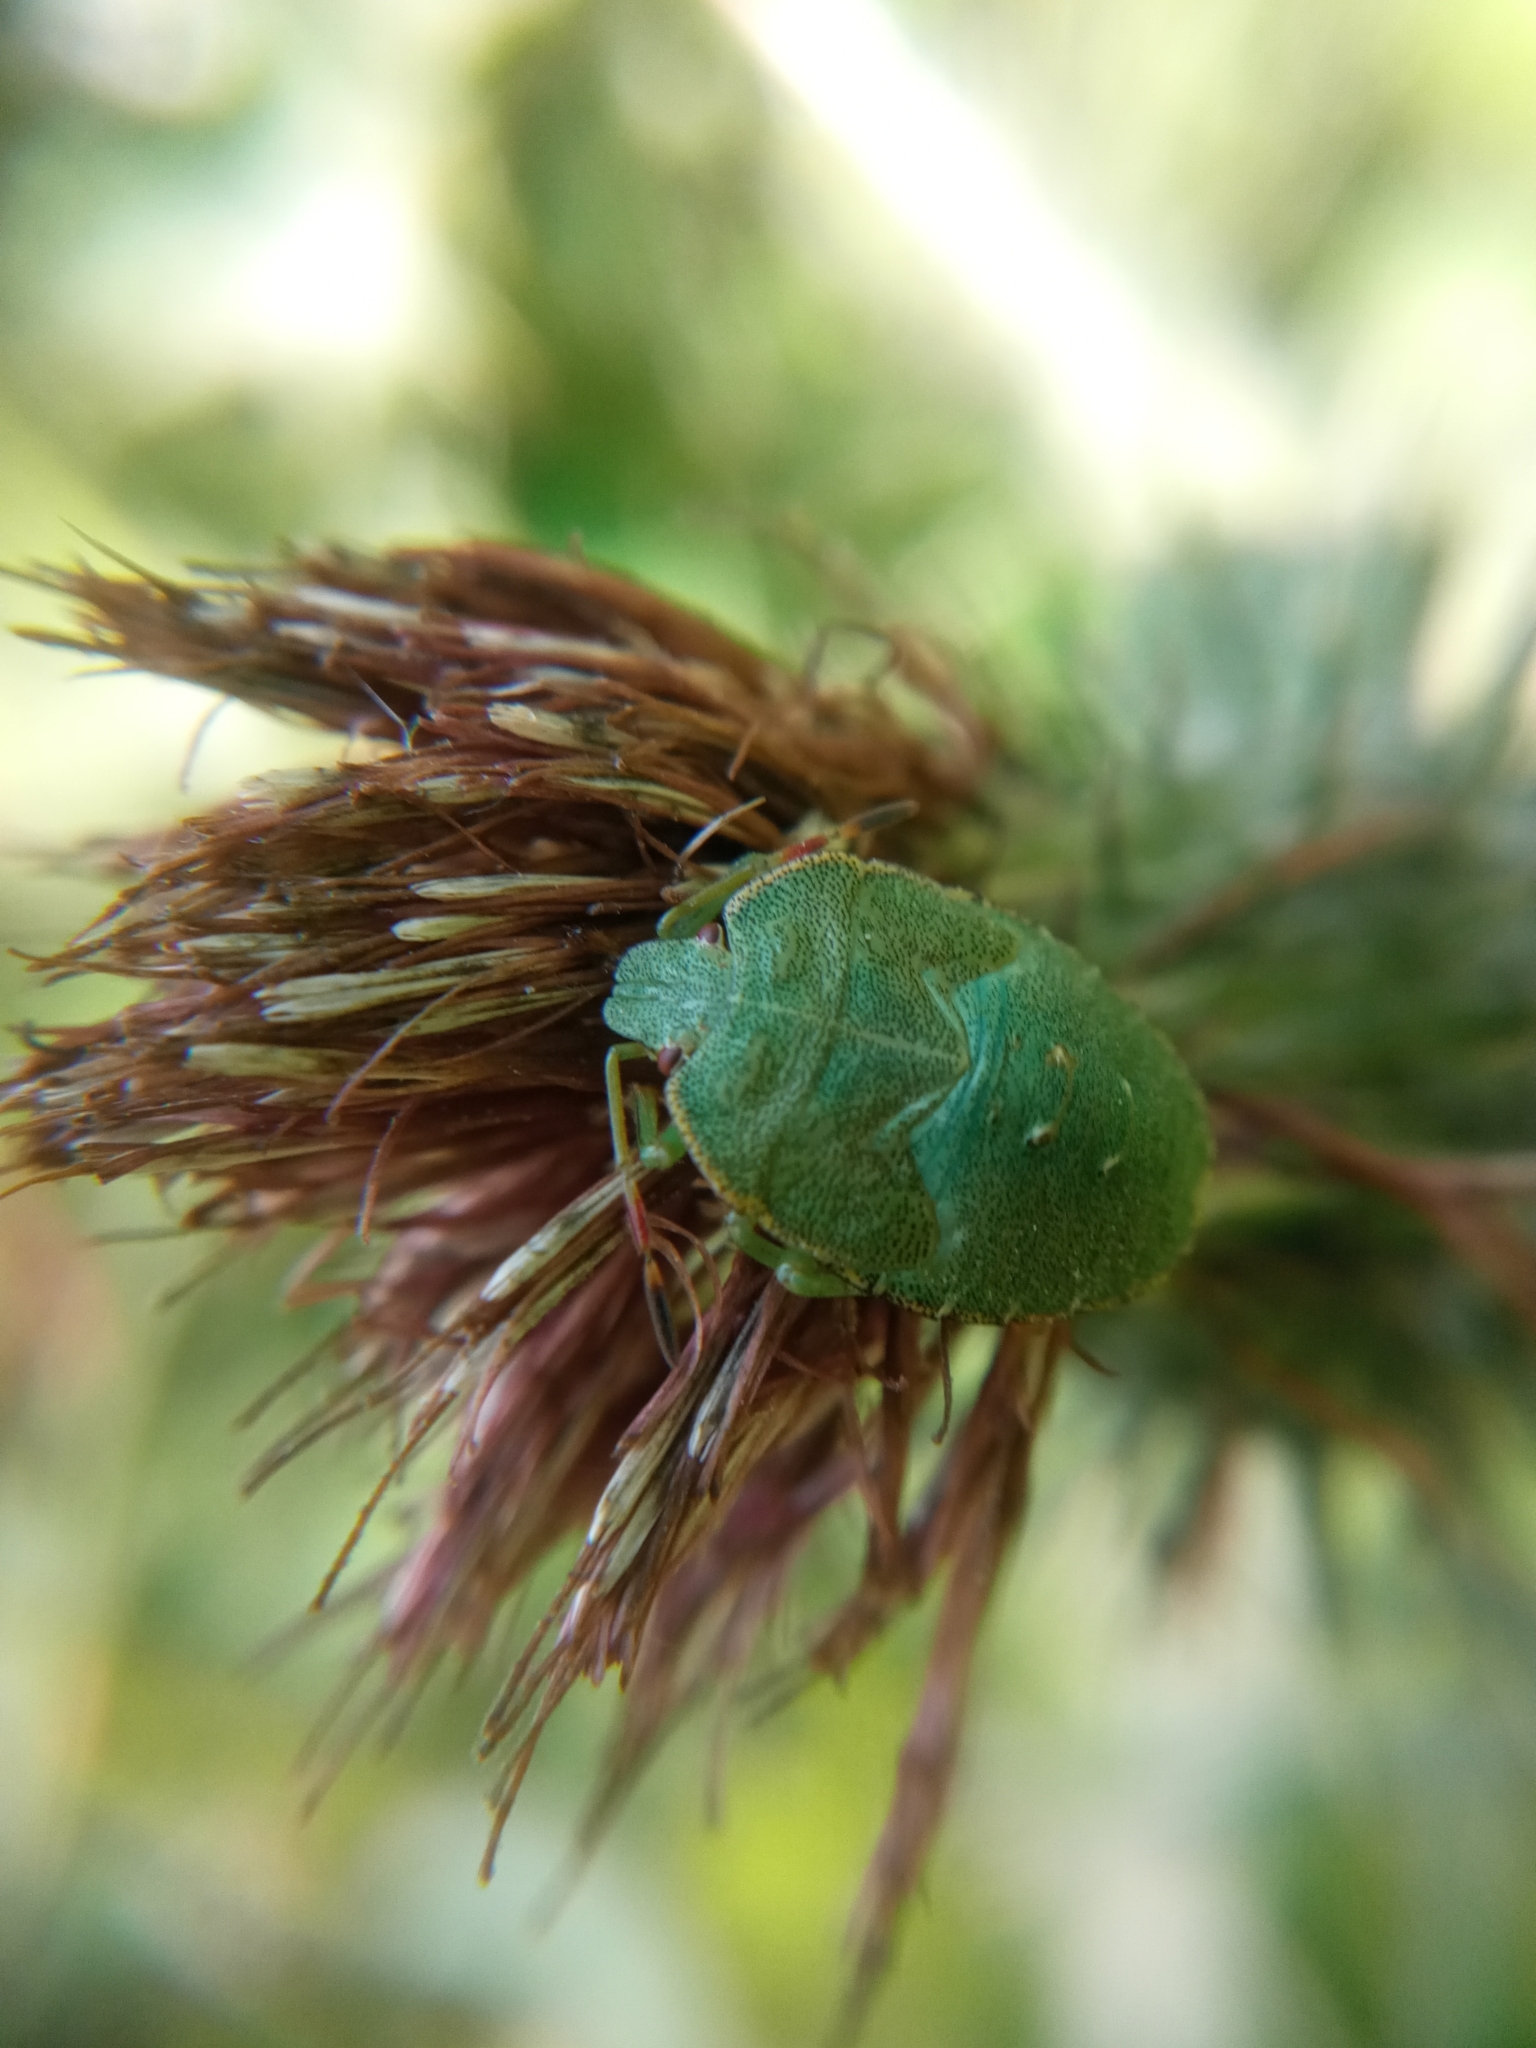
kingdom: Animalia
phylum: Arthropoda
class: Insecta
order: Hemiptera
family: Pentatomidae
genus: Palomena
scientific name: Palomena prasina
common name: Green shieldbug
